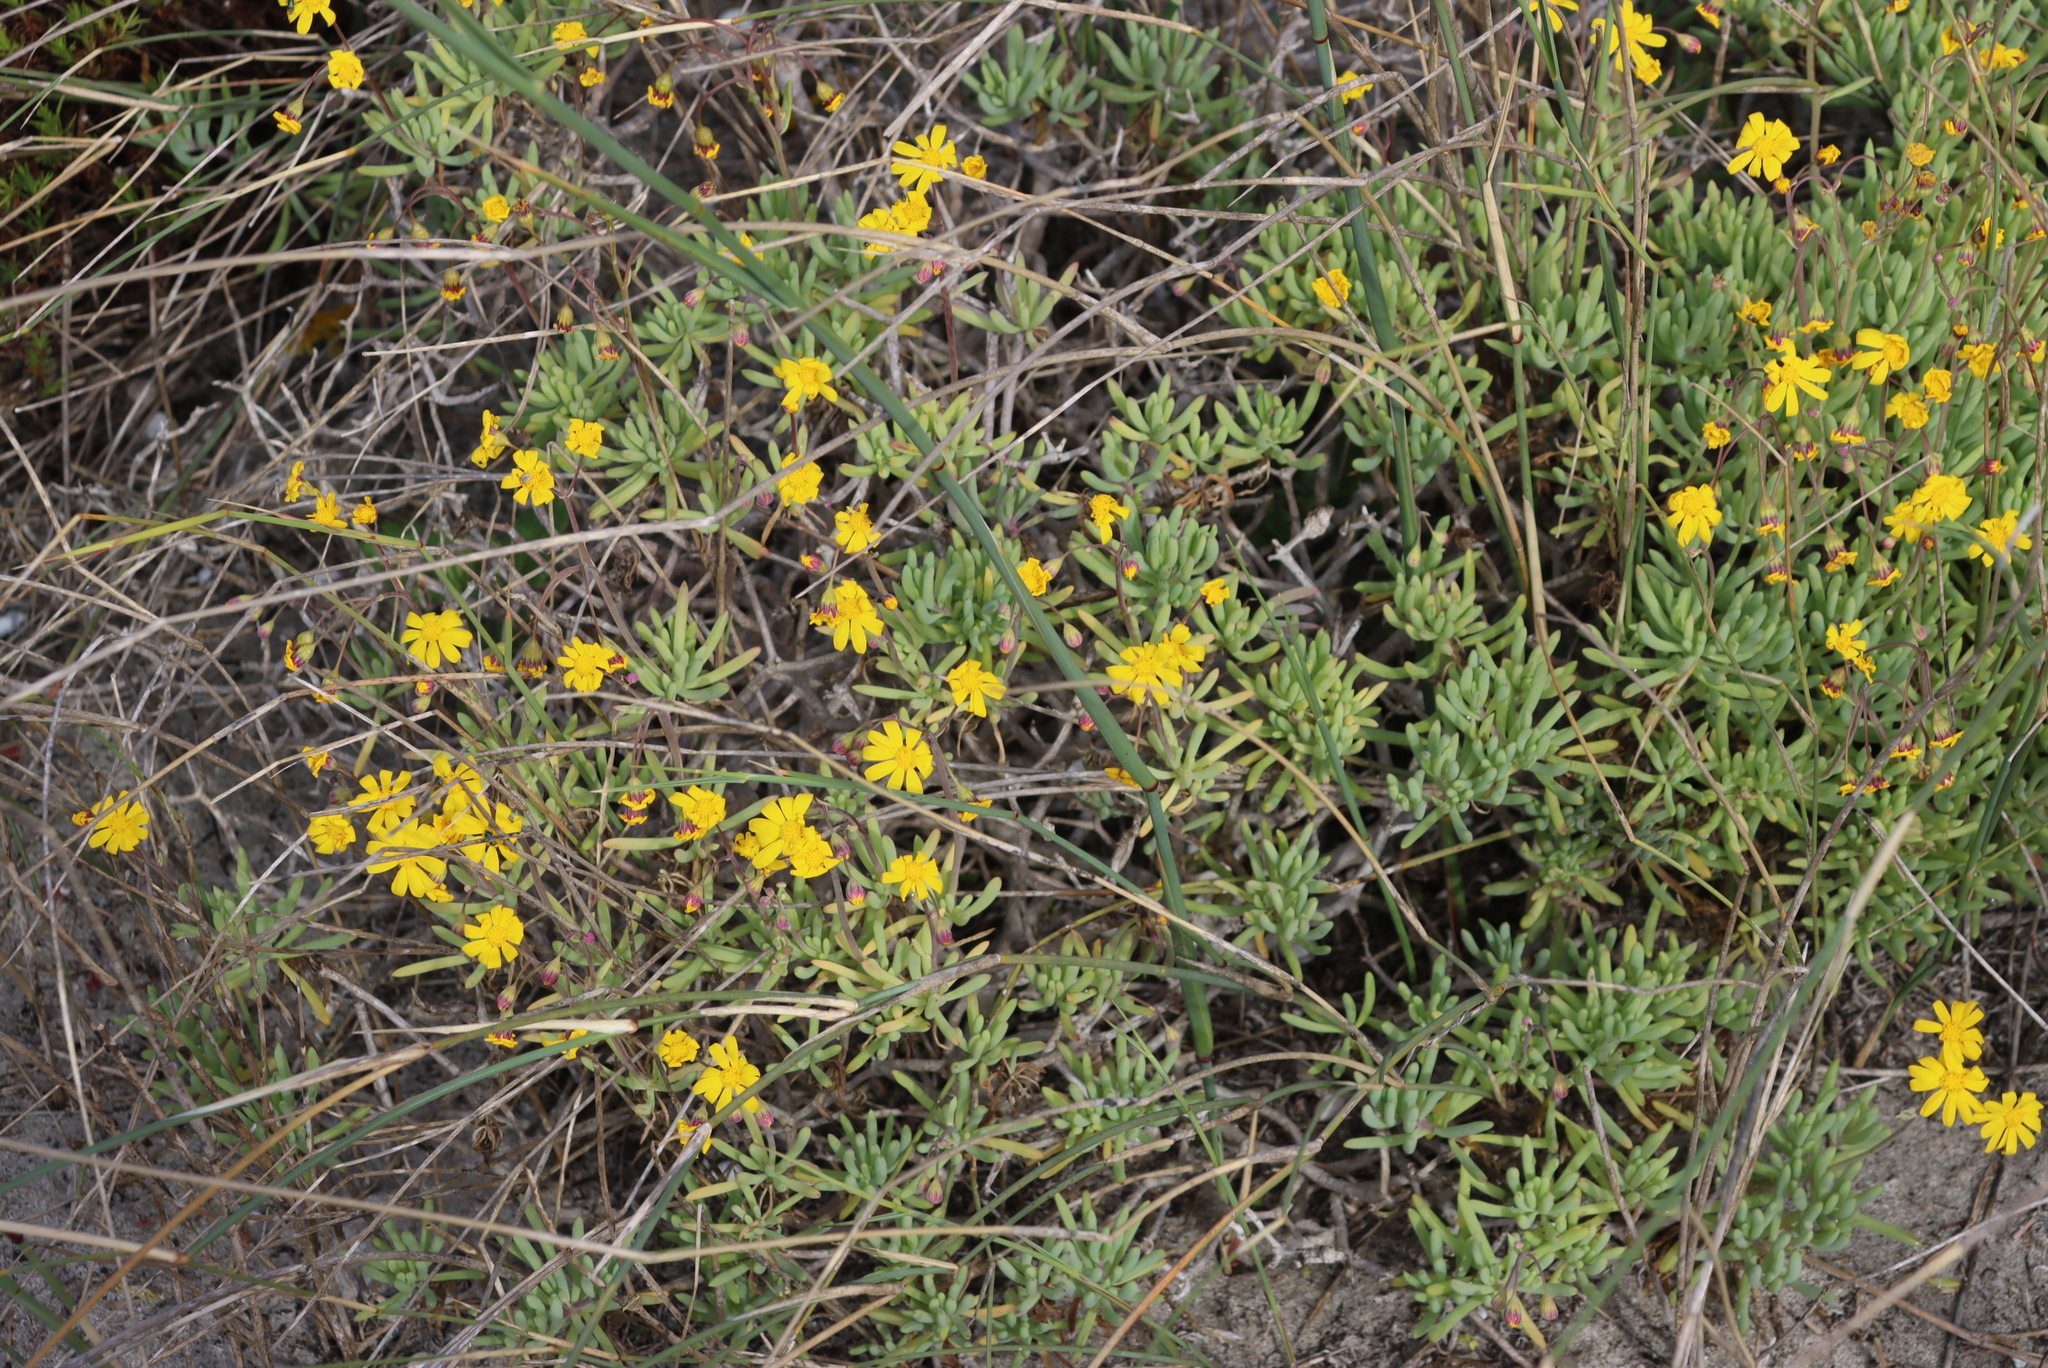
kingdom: Plantae
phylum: Tracheophyta
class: Magnoliopsida
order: Asterales
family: Asteraceae
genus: Crassothonna
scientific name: Crassothonna cylindrica
